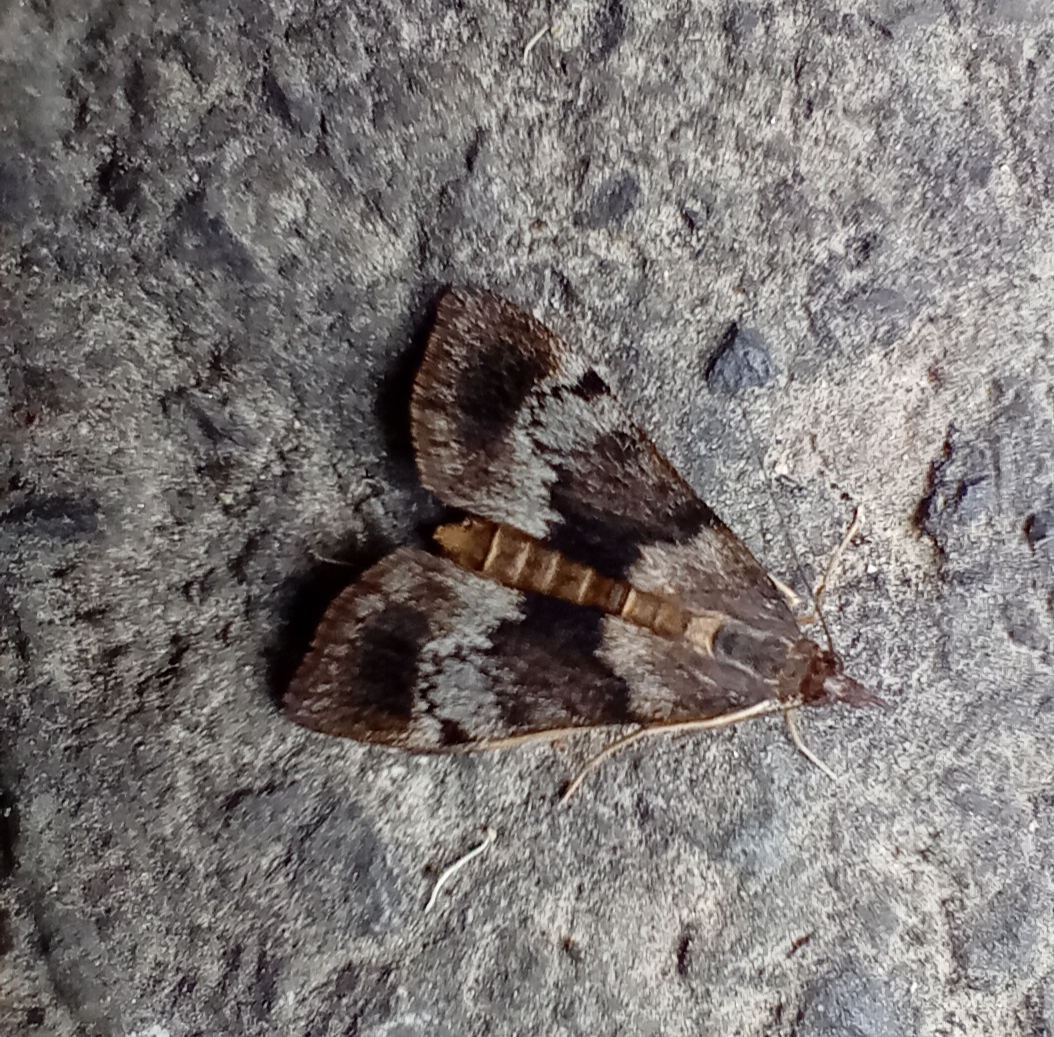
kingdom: Animalia
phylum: Arthropoda
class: Insecta
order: Lepidoptera
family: Crambidae
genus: Uresiphita
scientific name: Uresiphita
